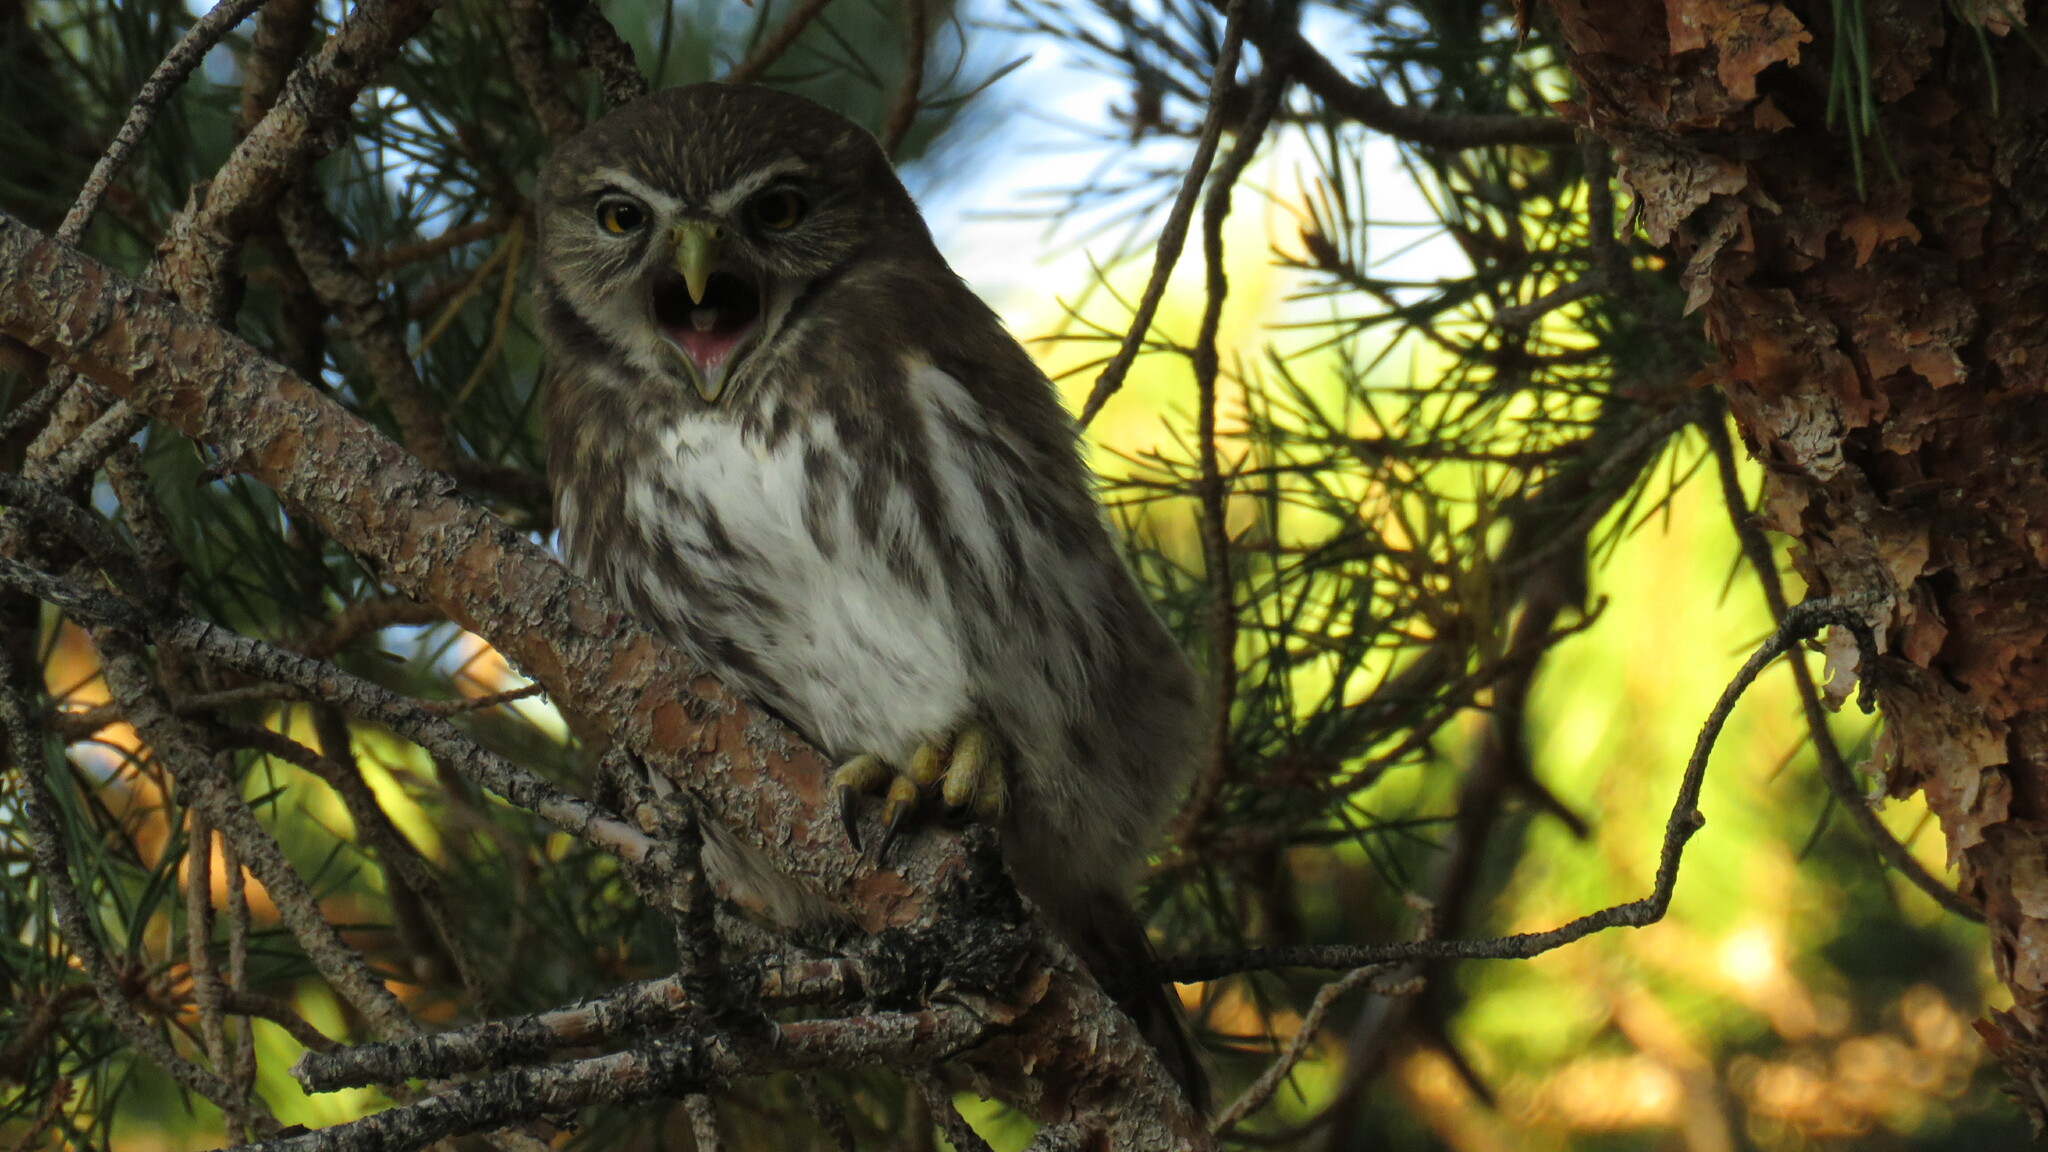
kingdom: Animalia
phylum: Chordata
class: Aves
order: Strigiformes
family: Strigidae
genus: Glaucidium
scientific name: Glaucidium nana
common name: Austral pygmy-owl
